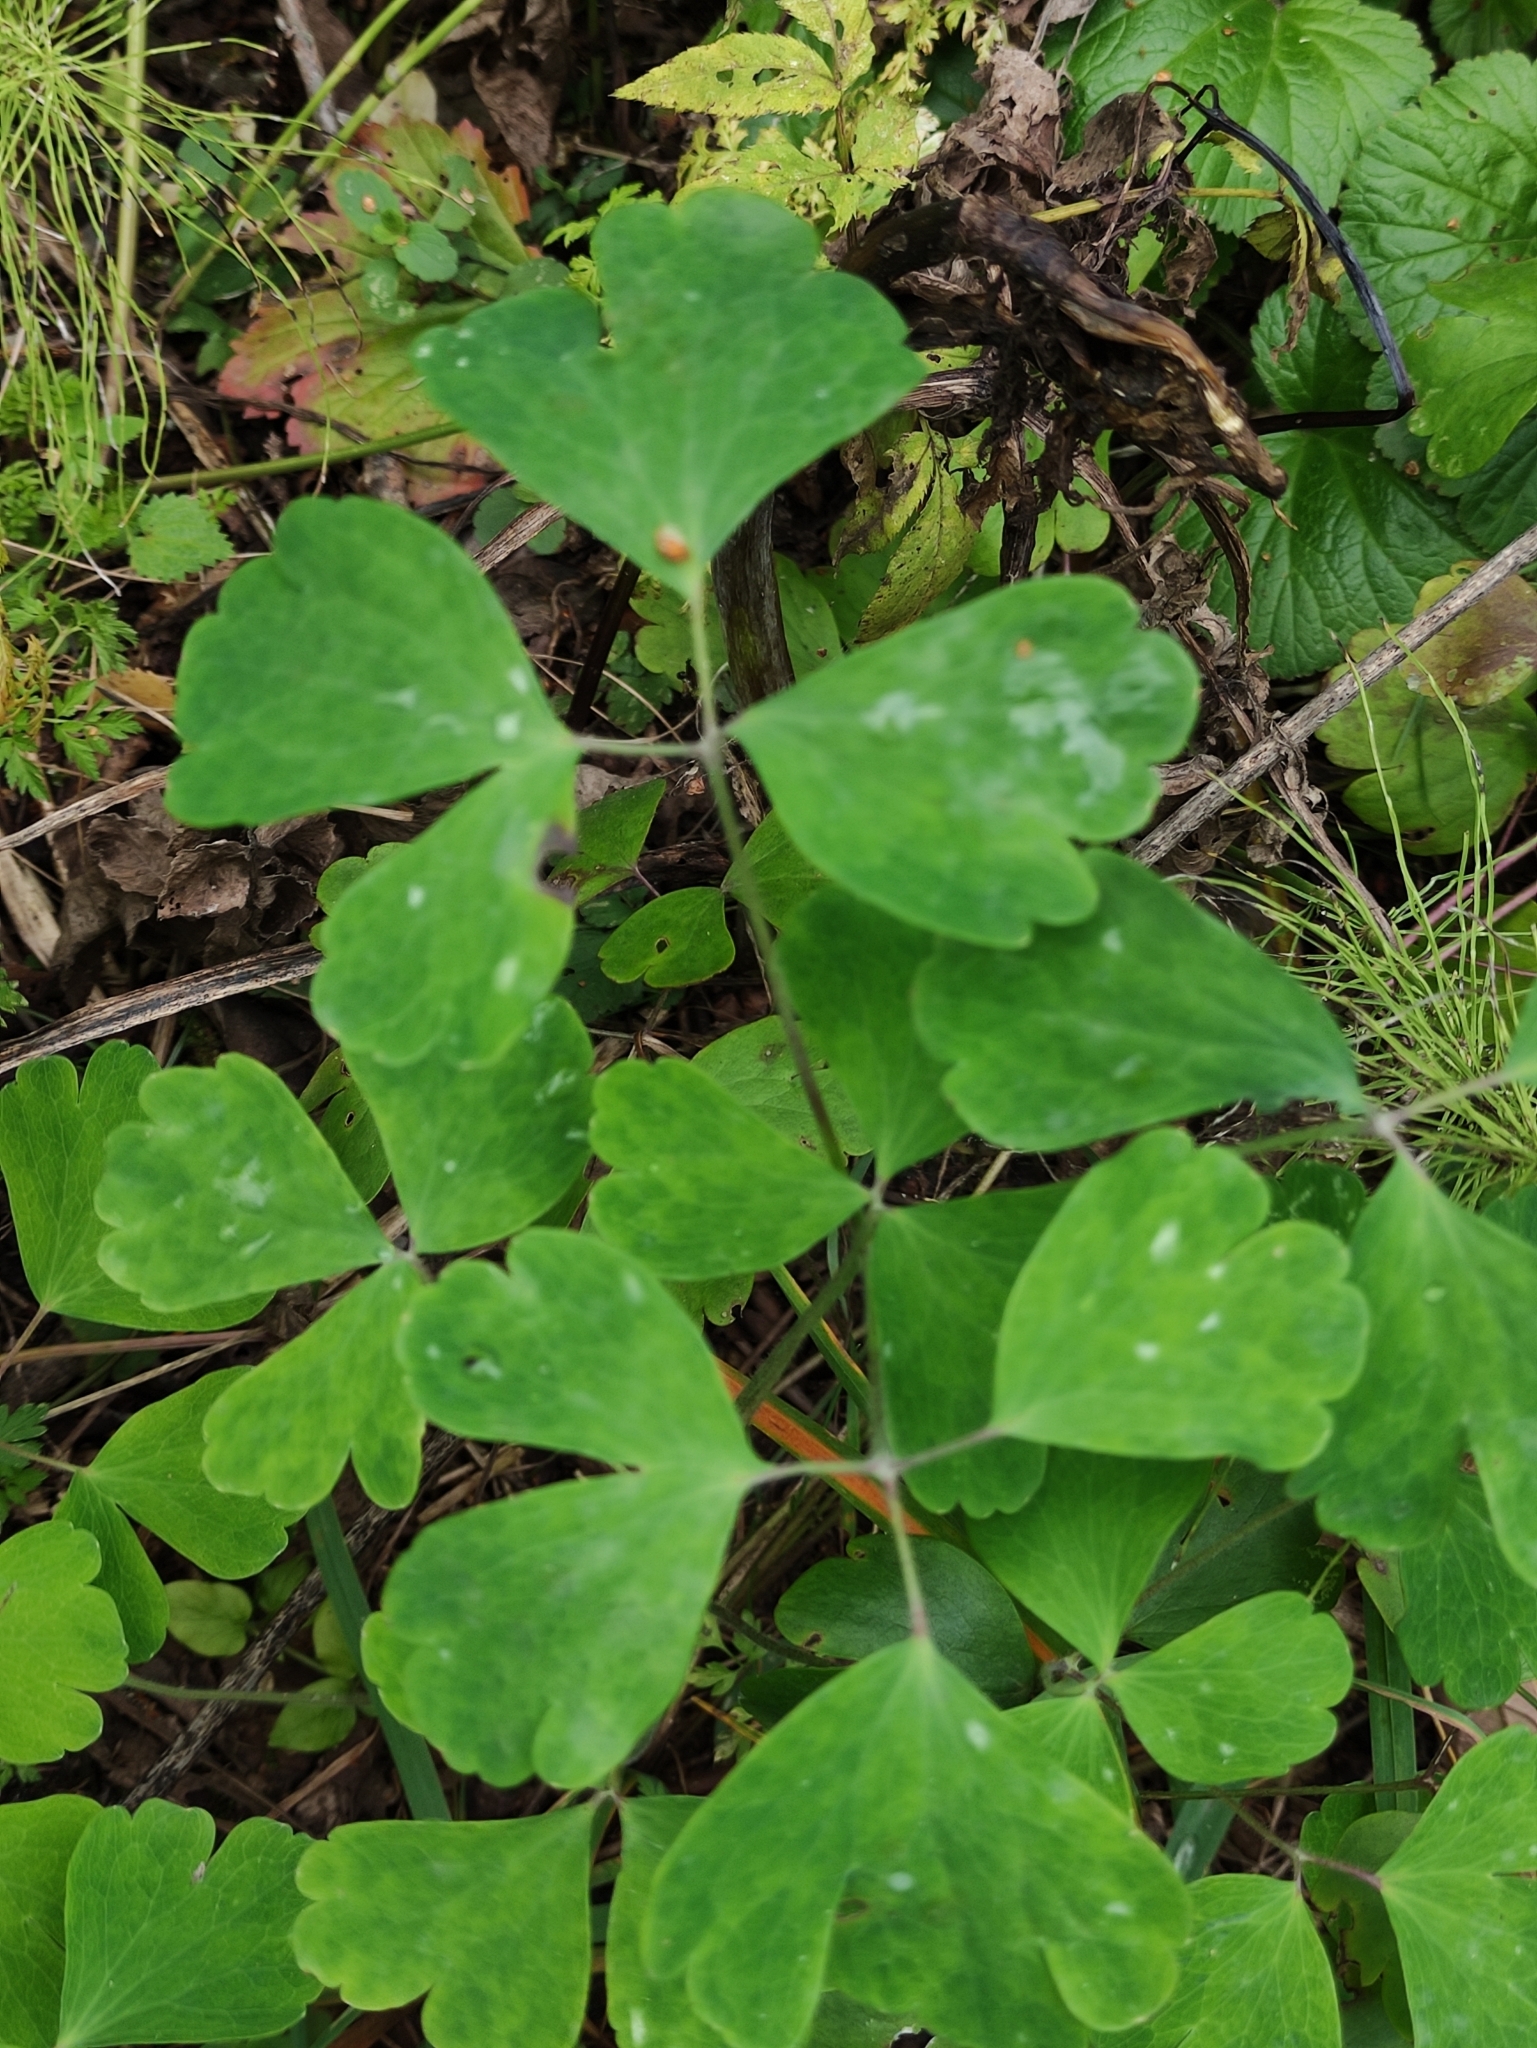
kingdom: Plantae
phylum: Tracheophyta
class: Magnoliopsida
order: Ranunculales
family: Ranunculaceae
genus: Aquilegia
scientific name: Aquilegia vulgaris
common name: Columbine
